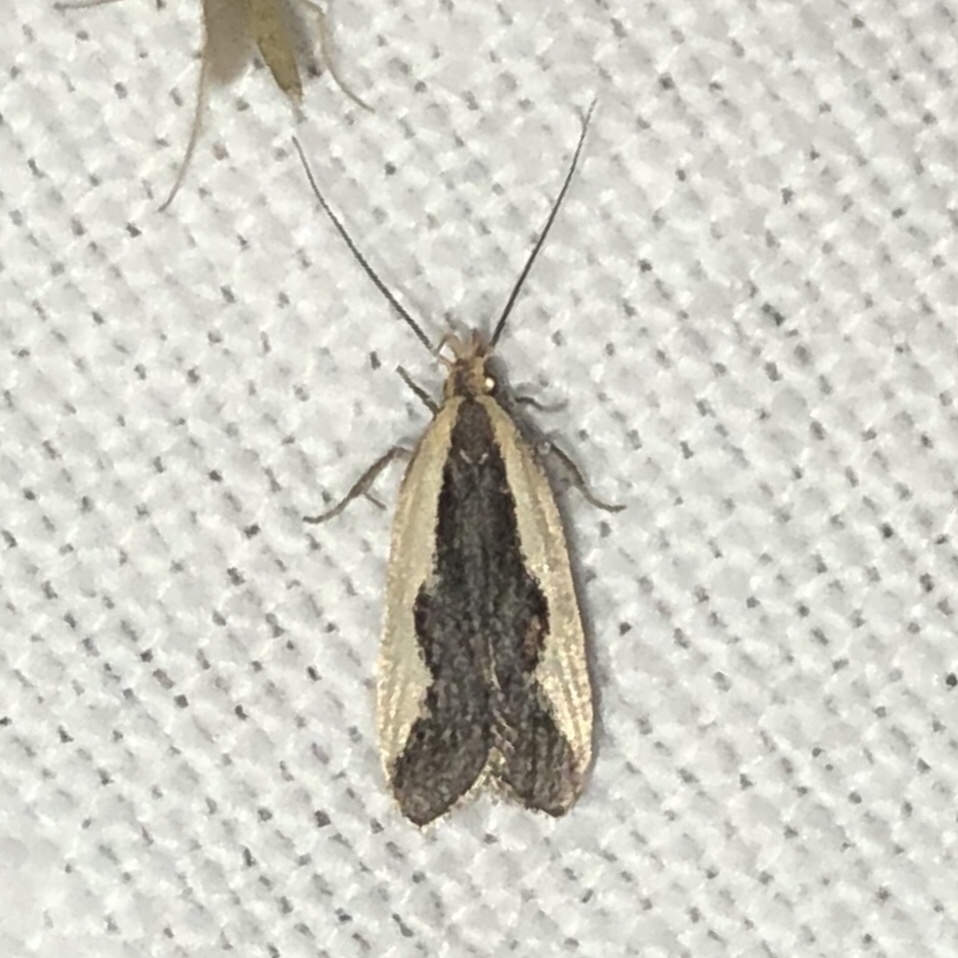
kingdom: Animalia
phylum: Arthropoda
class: Insecta
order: Lepidoptera
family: Gelechiidae
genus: Dichomeris
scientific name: Dichomeris inserrata
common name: Indented dichomeris moth
